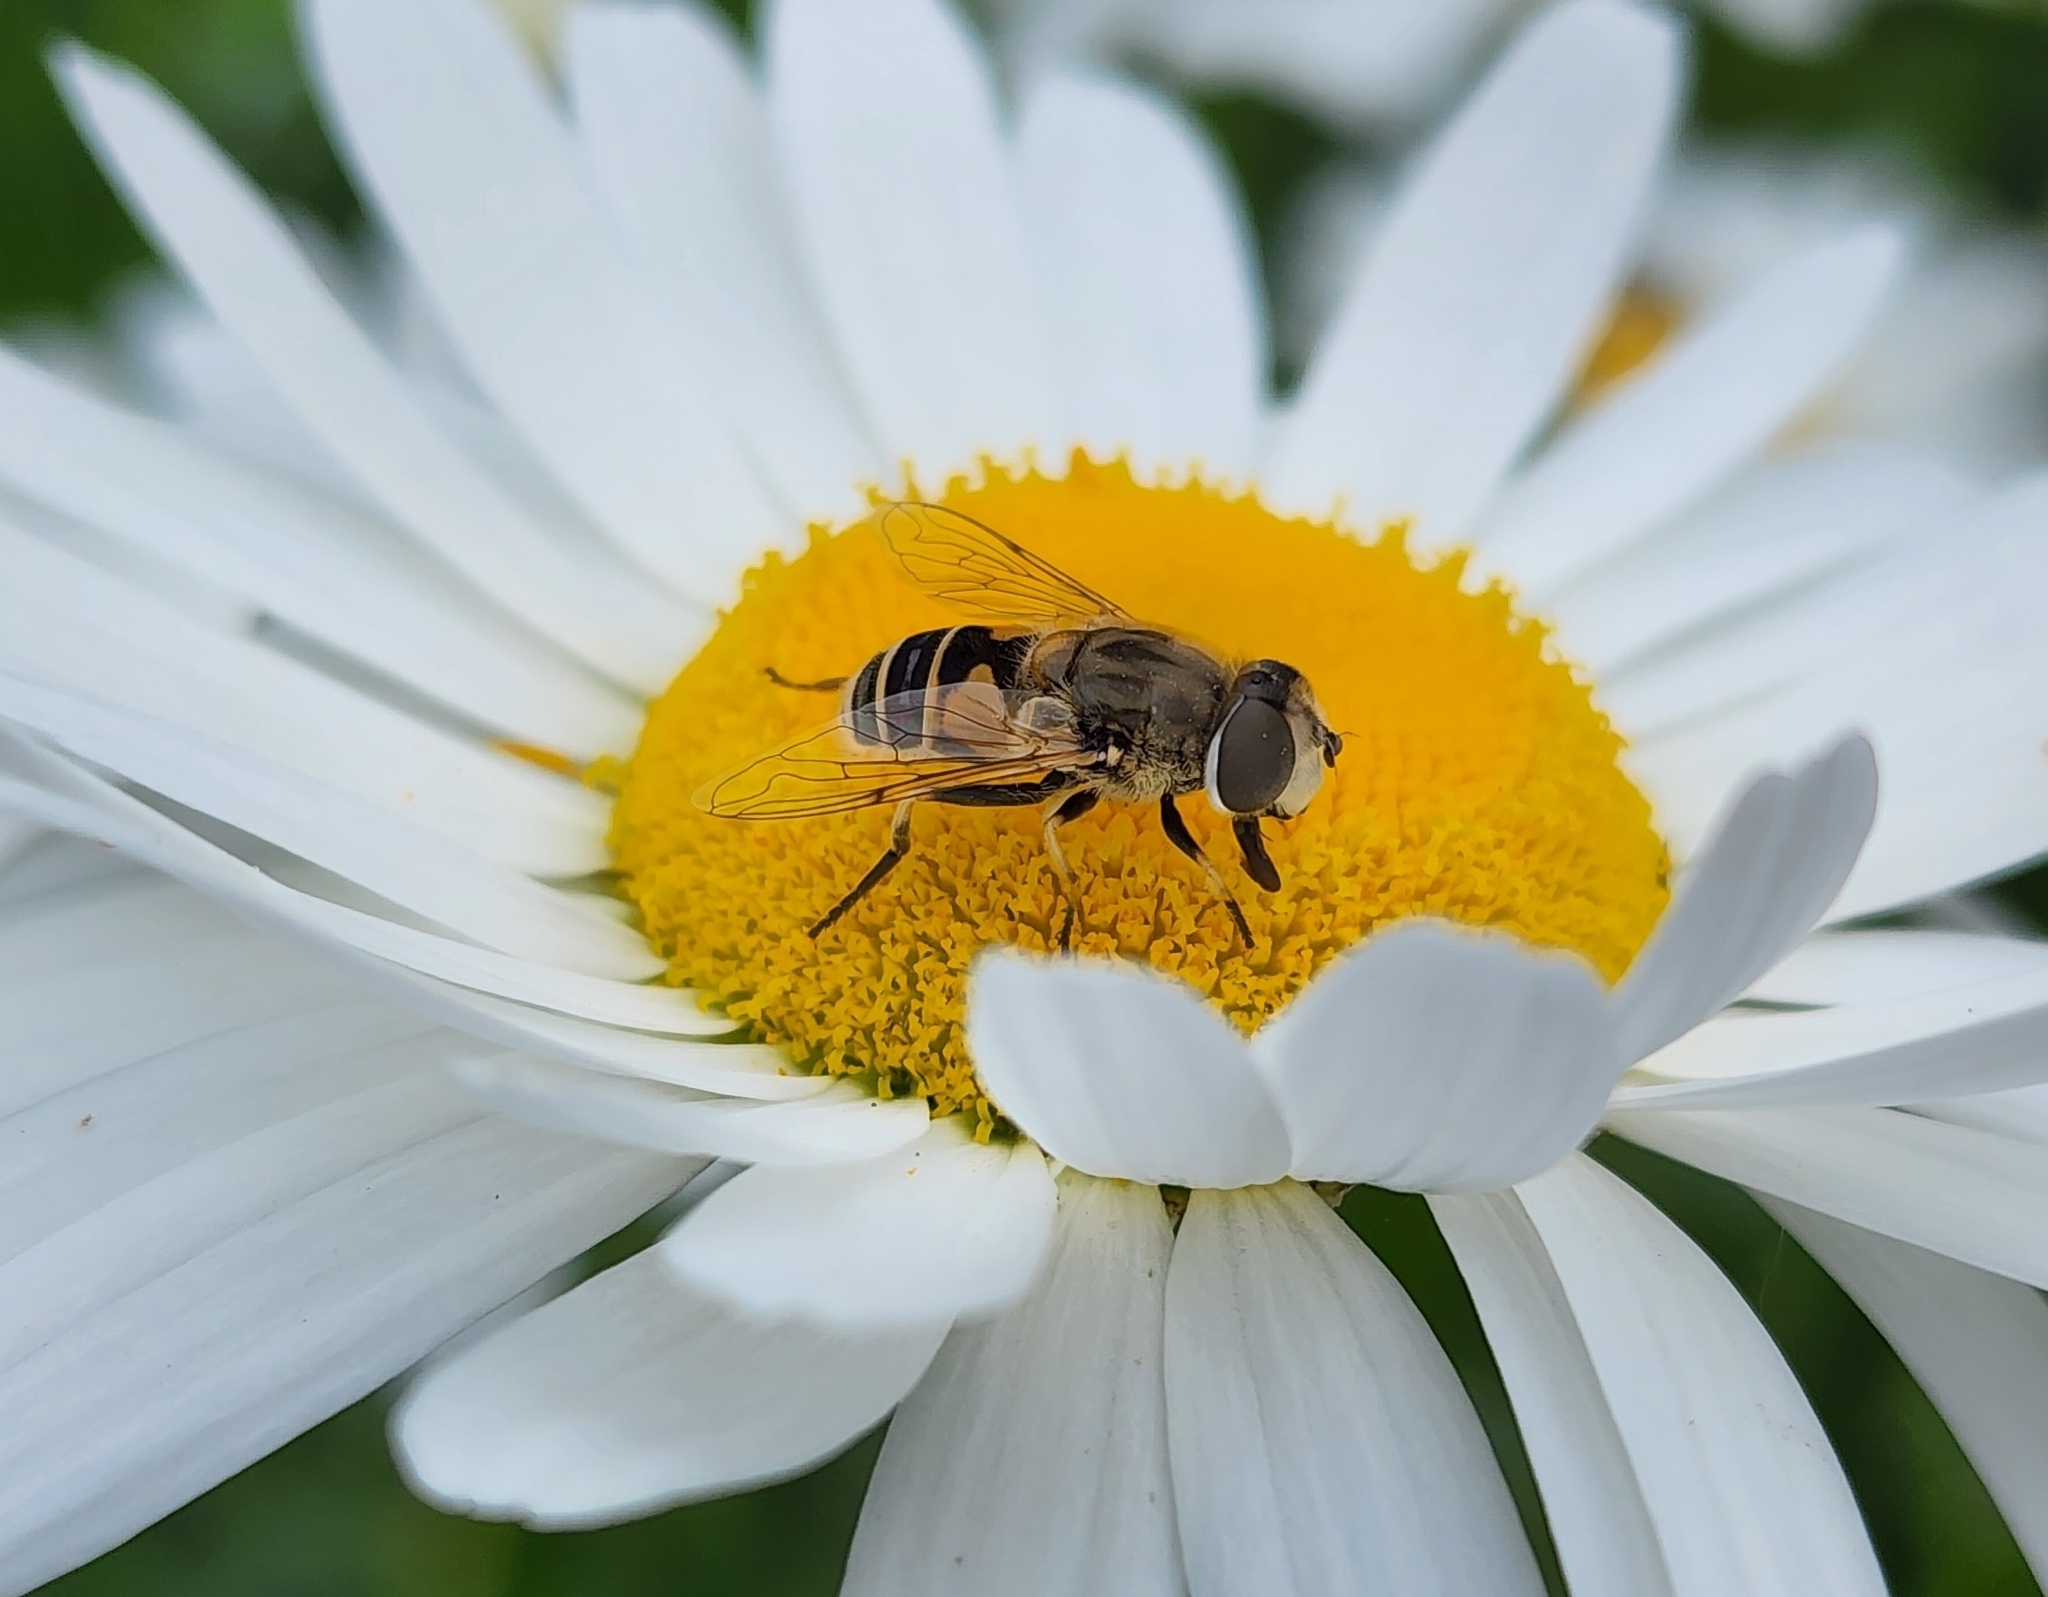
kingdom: Animalia
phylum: Arthropoda
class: Insecta
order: Diptera
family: Syrphidae
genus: Eristalis
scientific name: Eristalis arbustorum
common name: Hover fly
